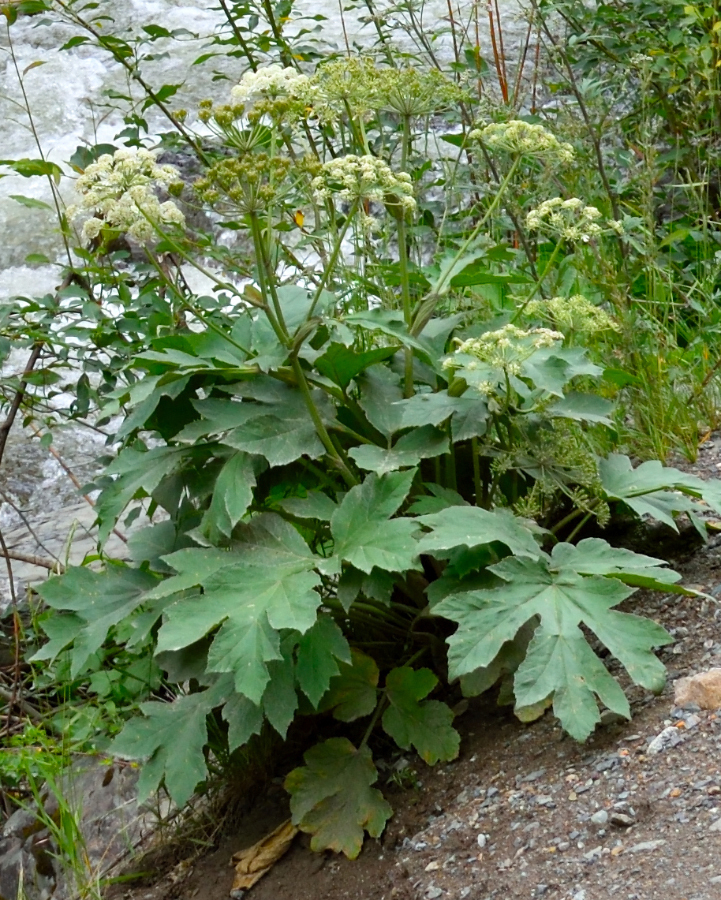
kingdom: Plantae
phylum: Tracheophyta
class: Magnoliopsida
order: Apiales
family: Apiaceae
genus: Heracleum
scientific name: Heracleum dissectum
